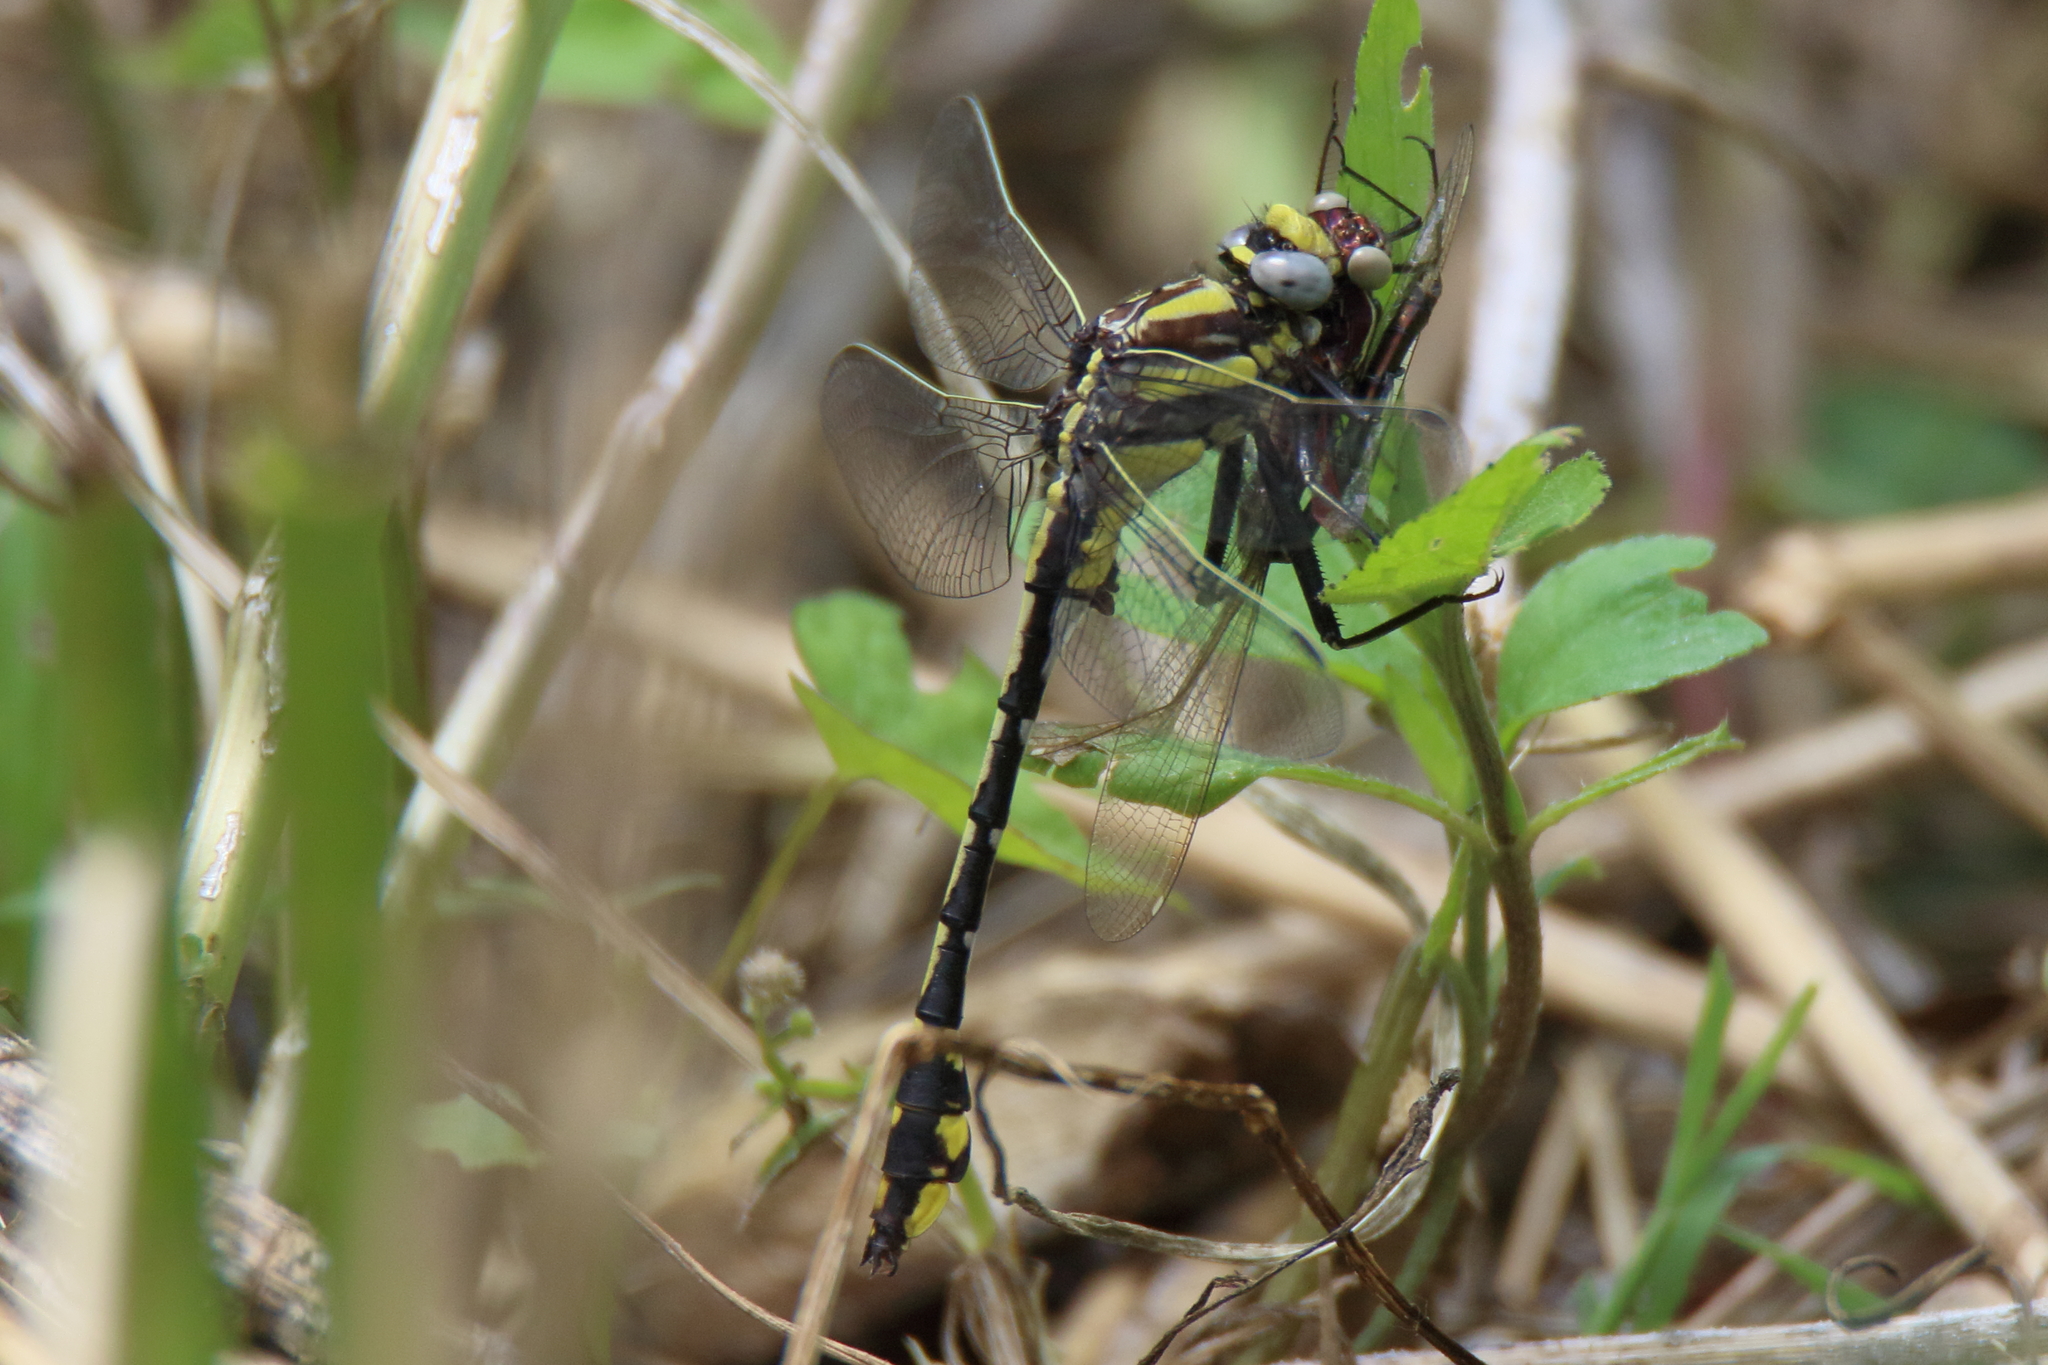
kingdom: Animalia
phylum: Arthropoda
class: Insecta
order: Odonata
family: Gomphidae
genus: Gomphurus
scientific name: Gomphurus externus
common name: Plains clubtail
